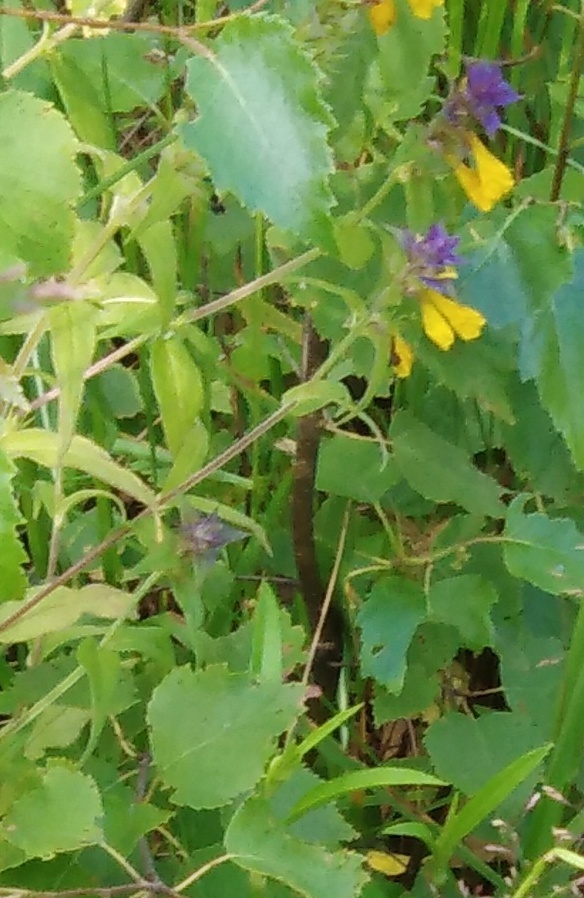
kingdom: Plantae
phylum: Tracheophyta
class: Magnoliopsida
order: Lamiales
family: Orobanchaceae
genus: Melampyrum
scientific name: Melampyrum nemorosum
